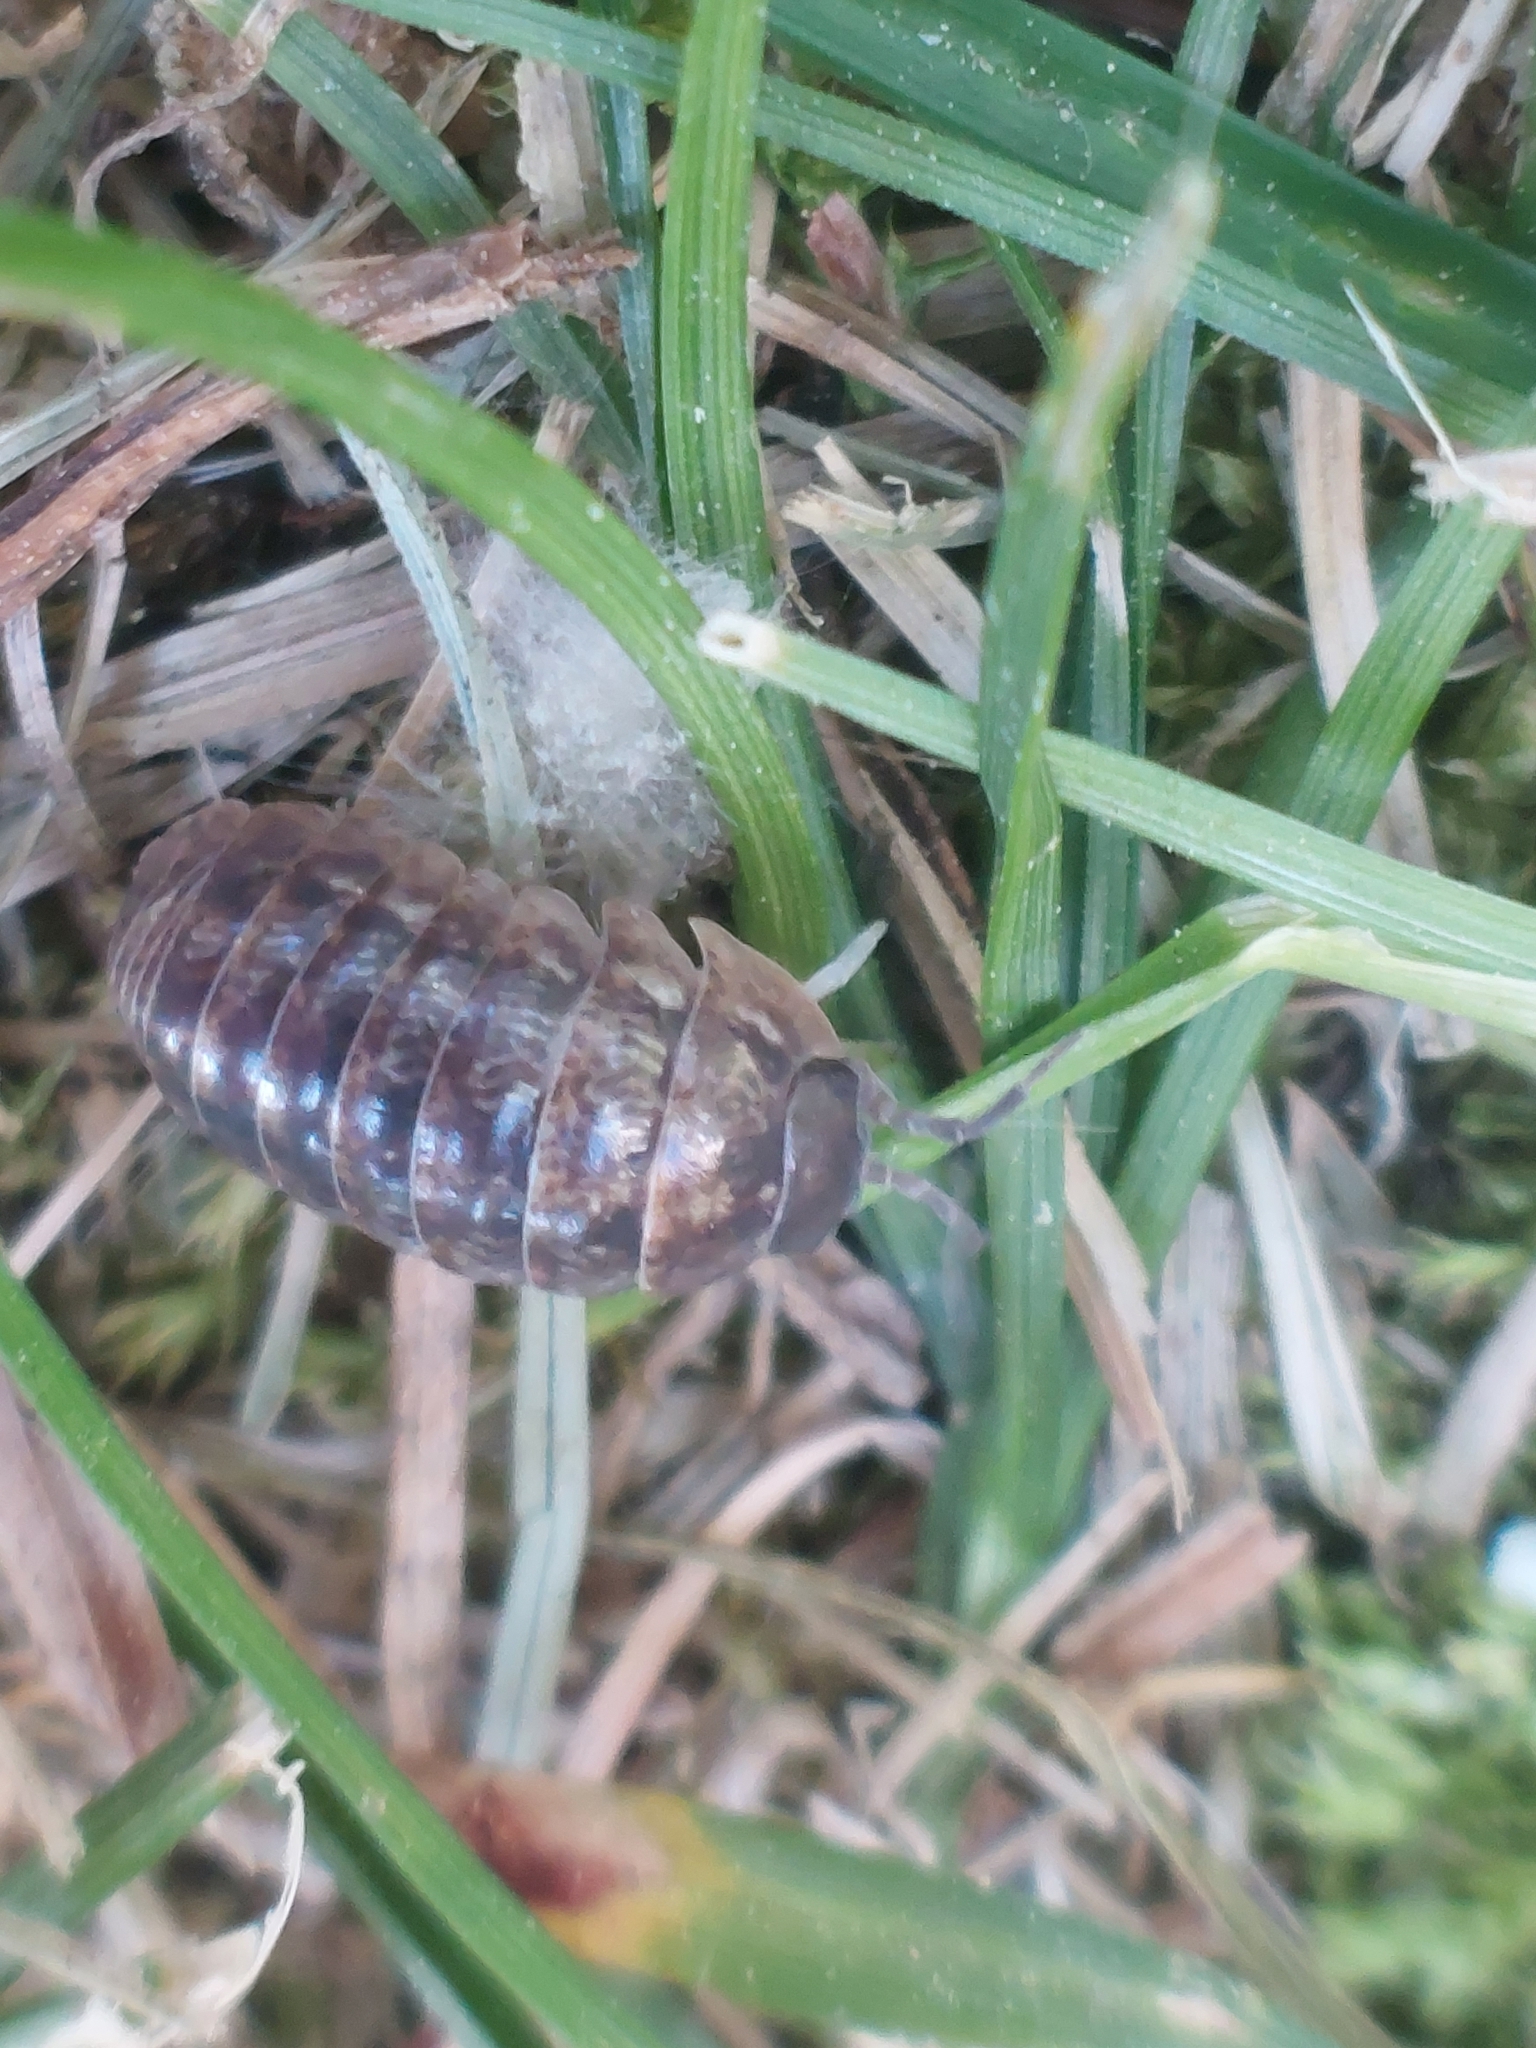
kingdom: Animalia
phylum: Arthropoda
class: Malacostraca
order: Isopoda
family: Armadillidiidae
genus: Armadillidium
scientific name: Armadillidium vulgare
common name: Common pill woodlouse
